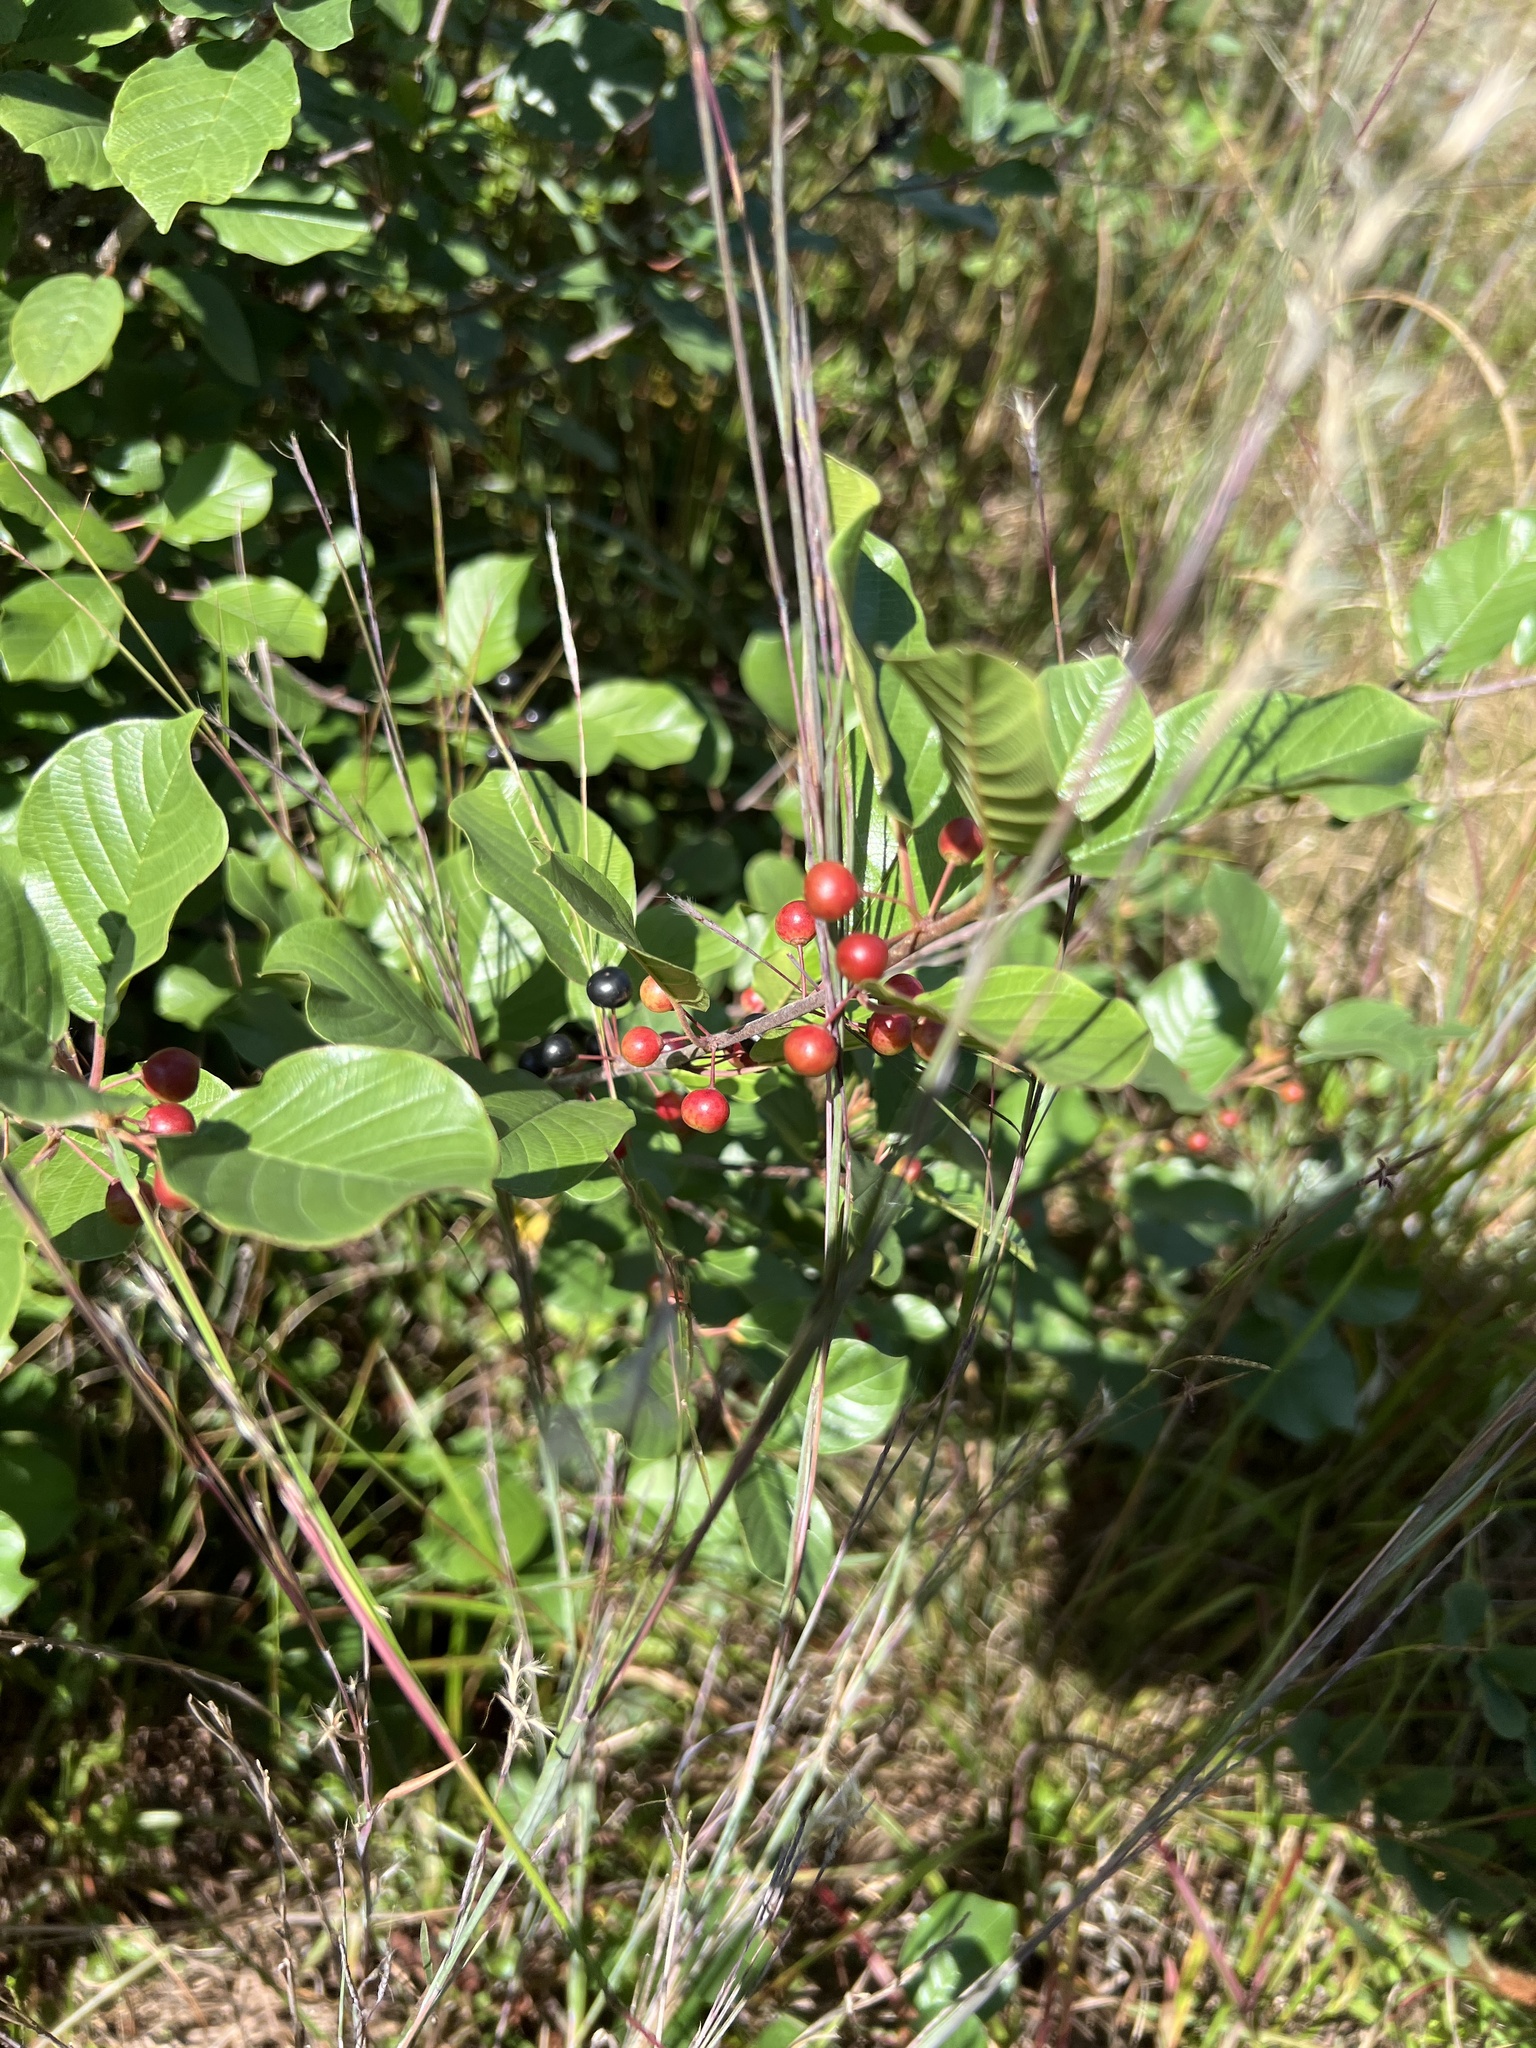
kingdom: Plantae
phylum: Tracheophyta
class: Magnoliopsida
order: Rosales
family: Rhamnaceae
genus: Frangula
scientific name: Frangula alnus
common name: Alder buckthorn
